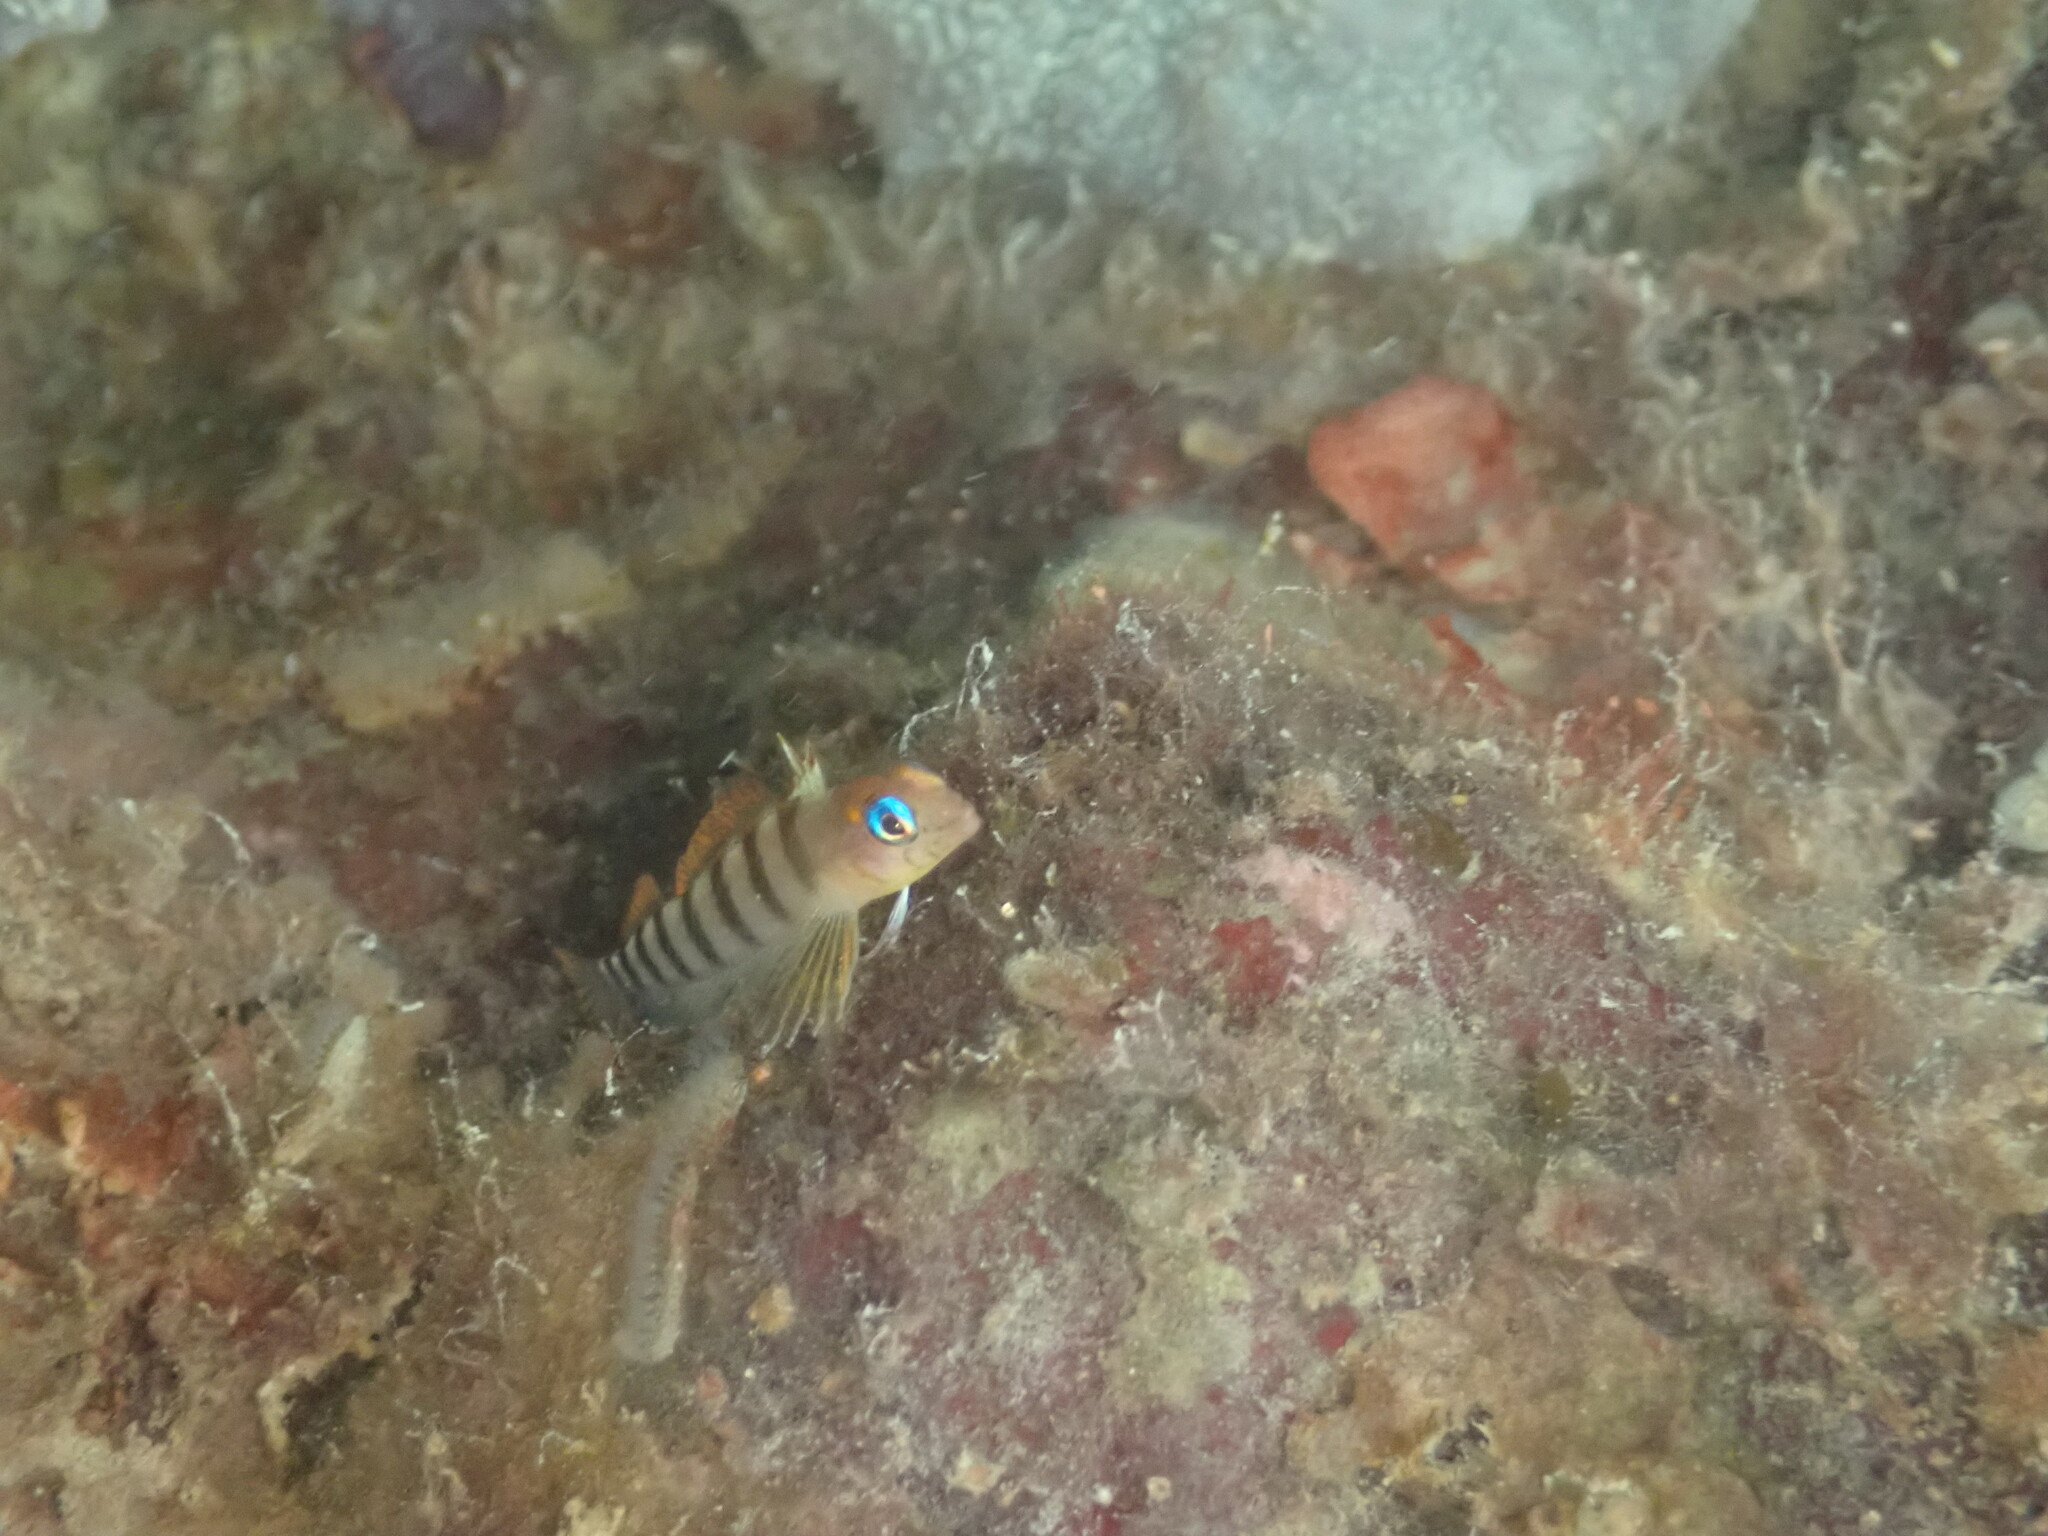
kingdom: Animalia
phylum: Chordata
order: Perciformes
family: Tripterygiidae
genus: Notoclinops
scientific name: Notoclinops segmentatus
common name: Blue-eyed triplefin
